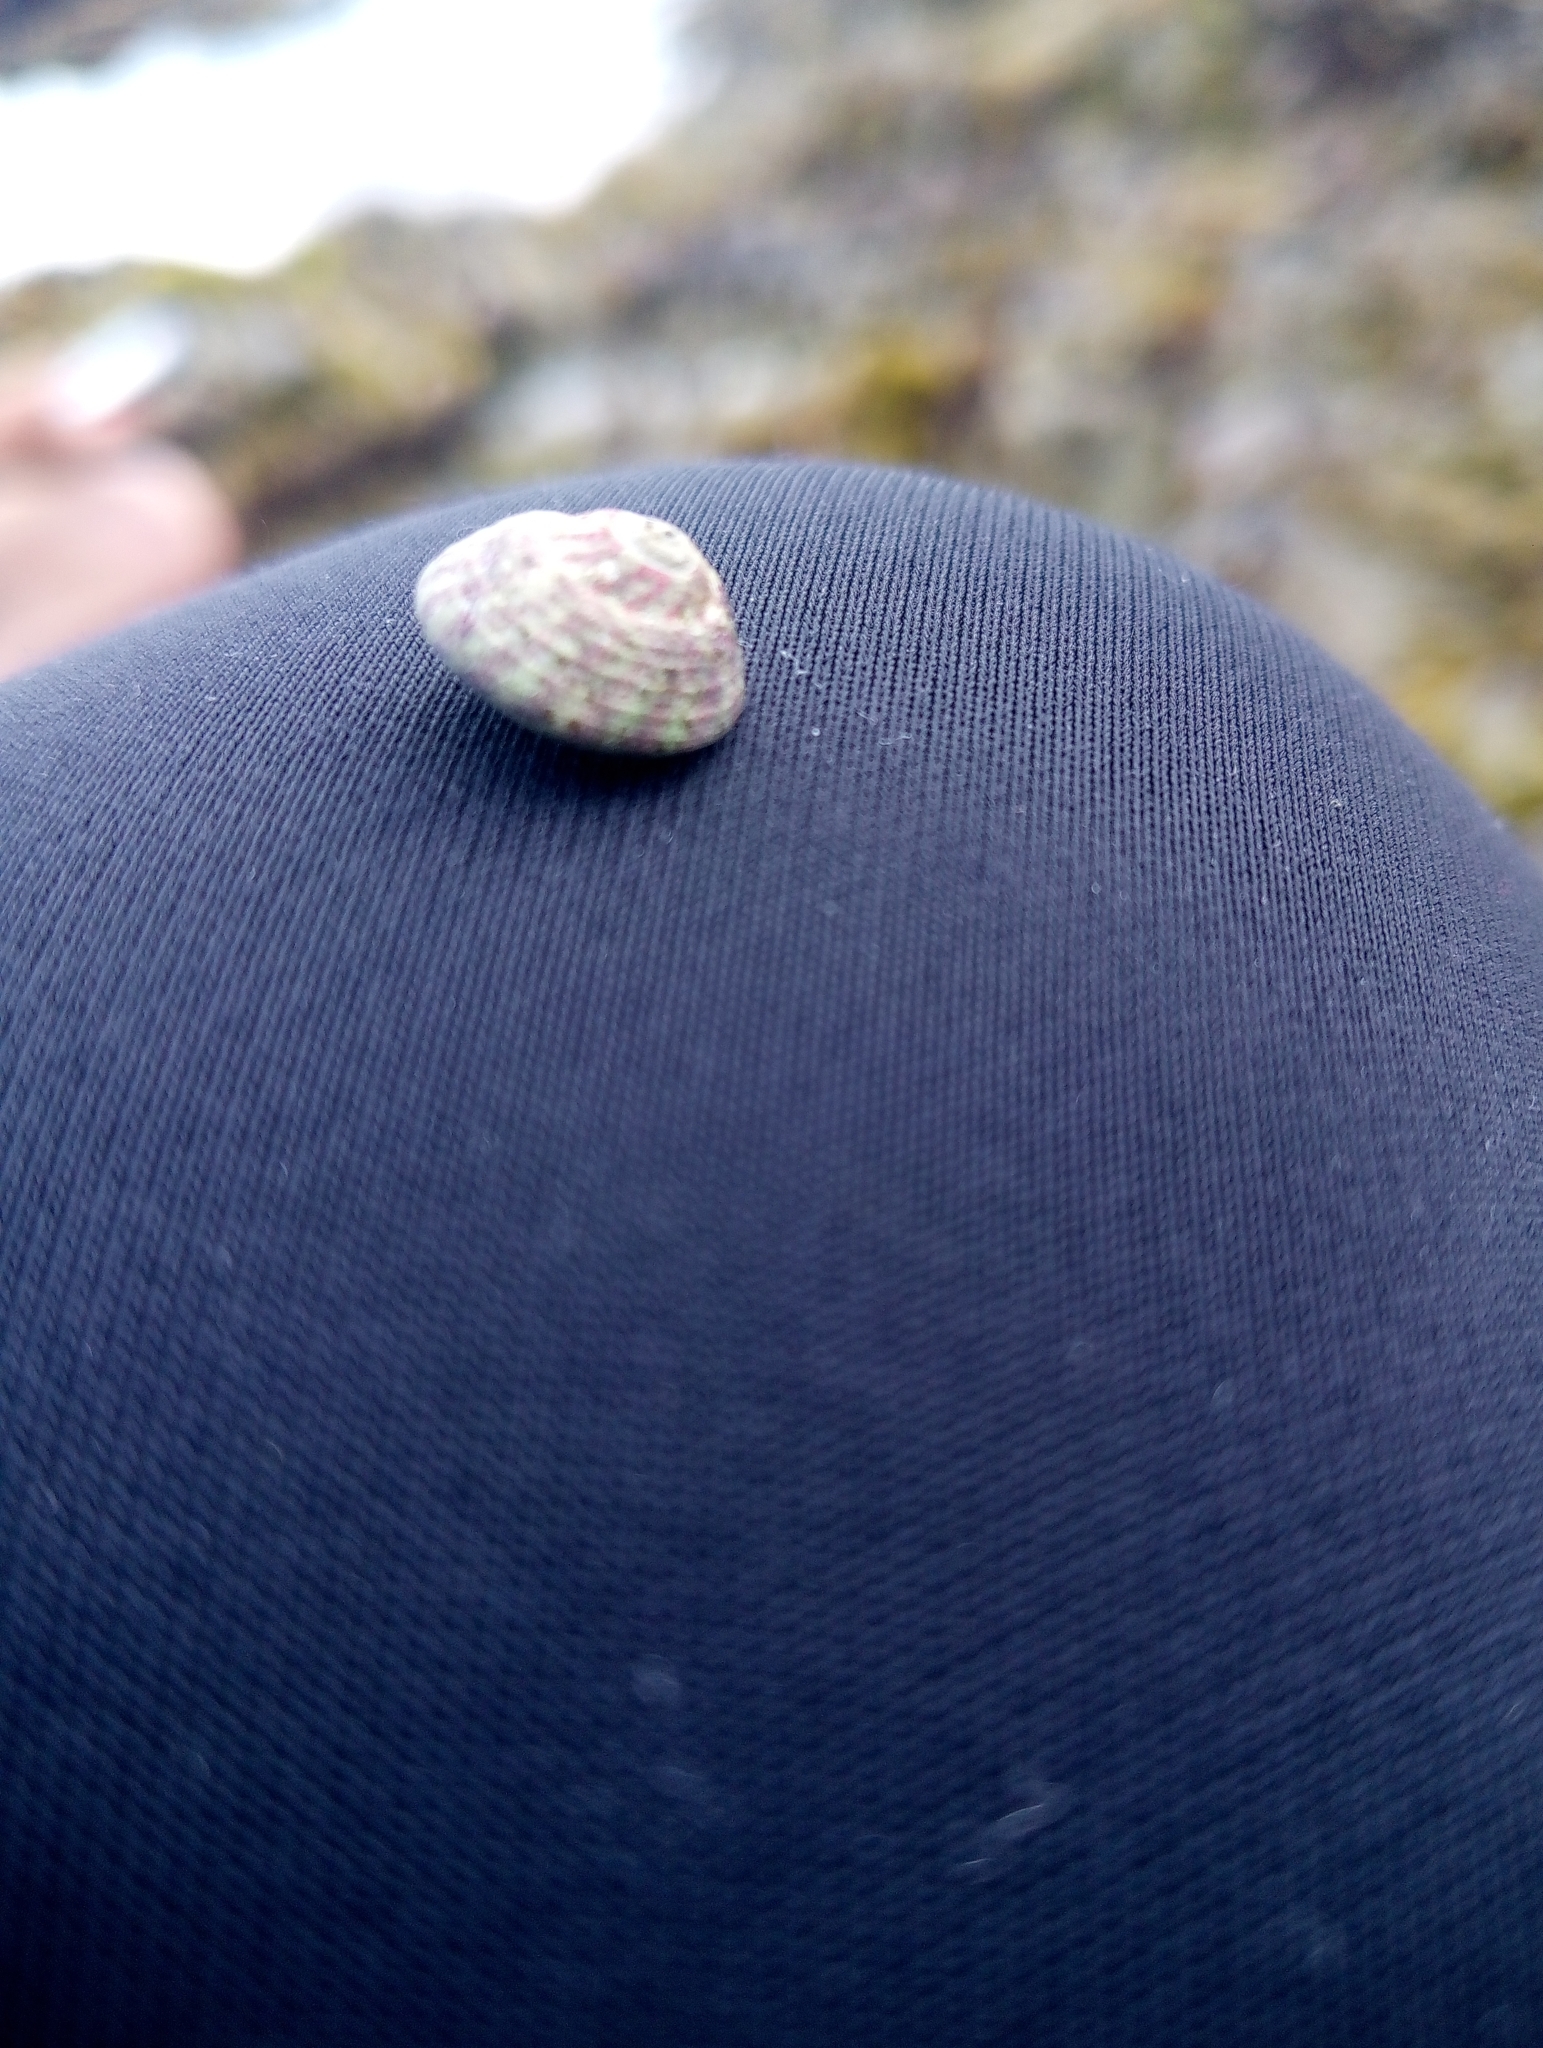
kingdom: Animalia
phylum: Mollusca
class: Gastropoda
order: Trochida
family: Trochidae
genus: Steromphala
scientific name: Steromphala umbilicalis
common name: Flat top shell
